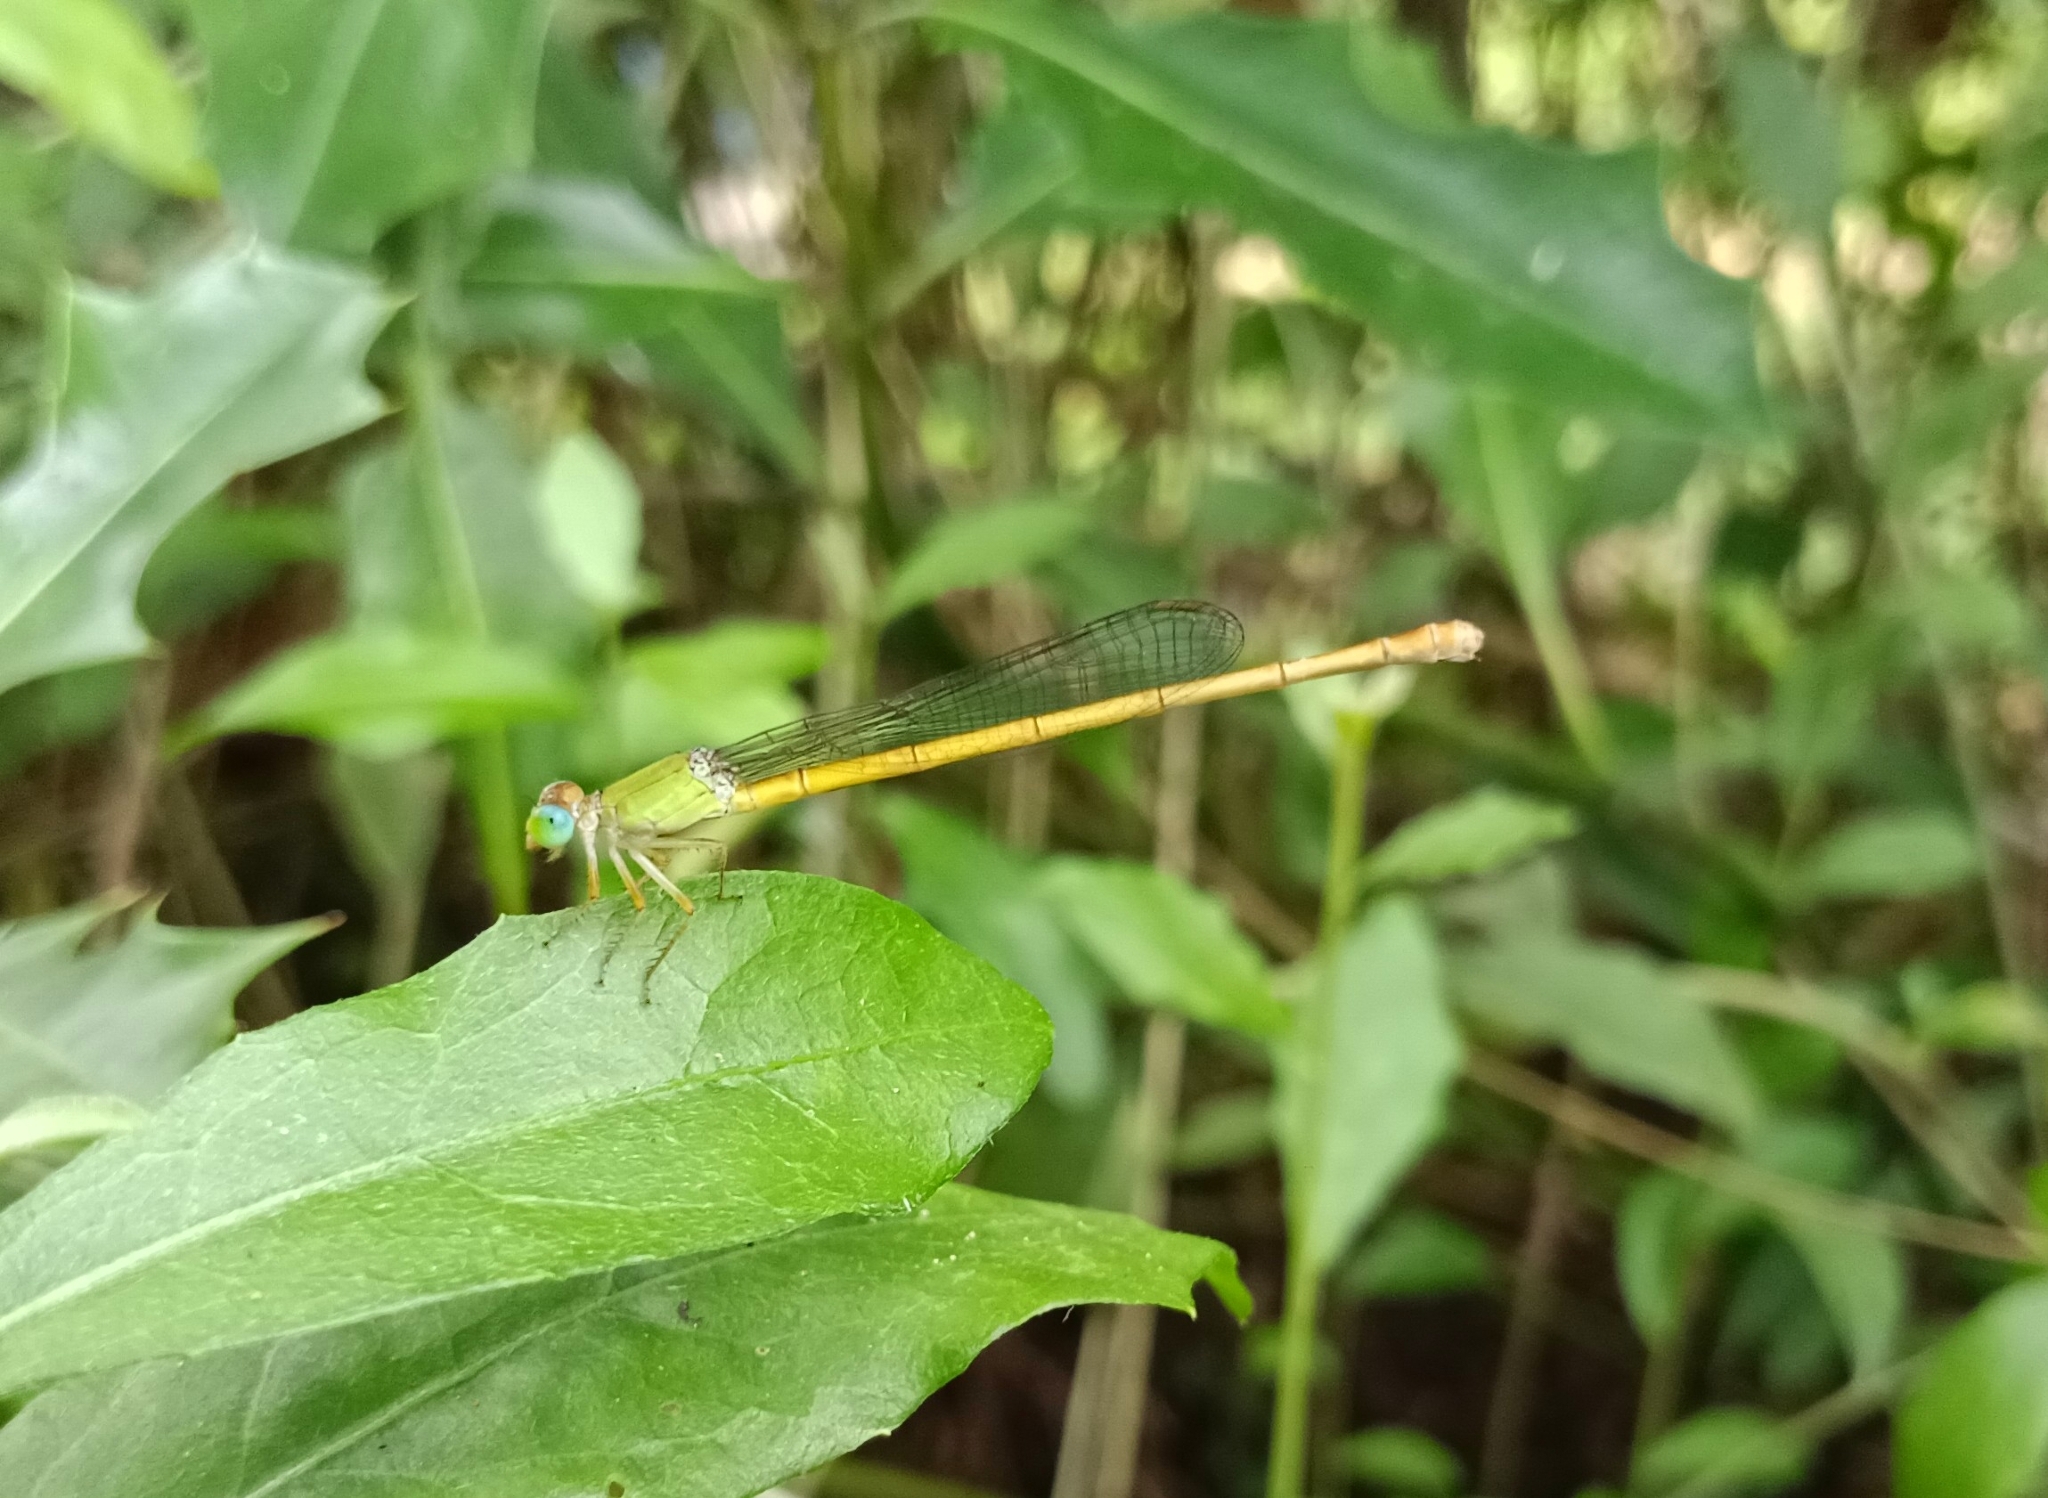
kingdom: Animalia
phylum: Arthropoda
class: Insecta
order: Odonata
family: Coenagrionidae
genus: Ceriagrion
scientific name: Ceriagrion coromandelianum
